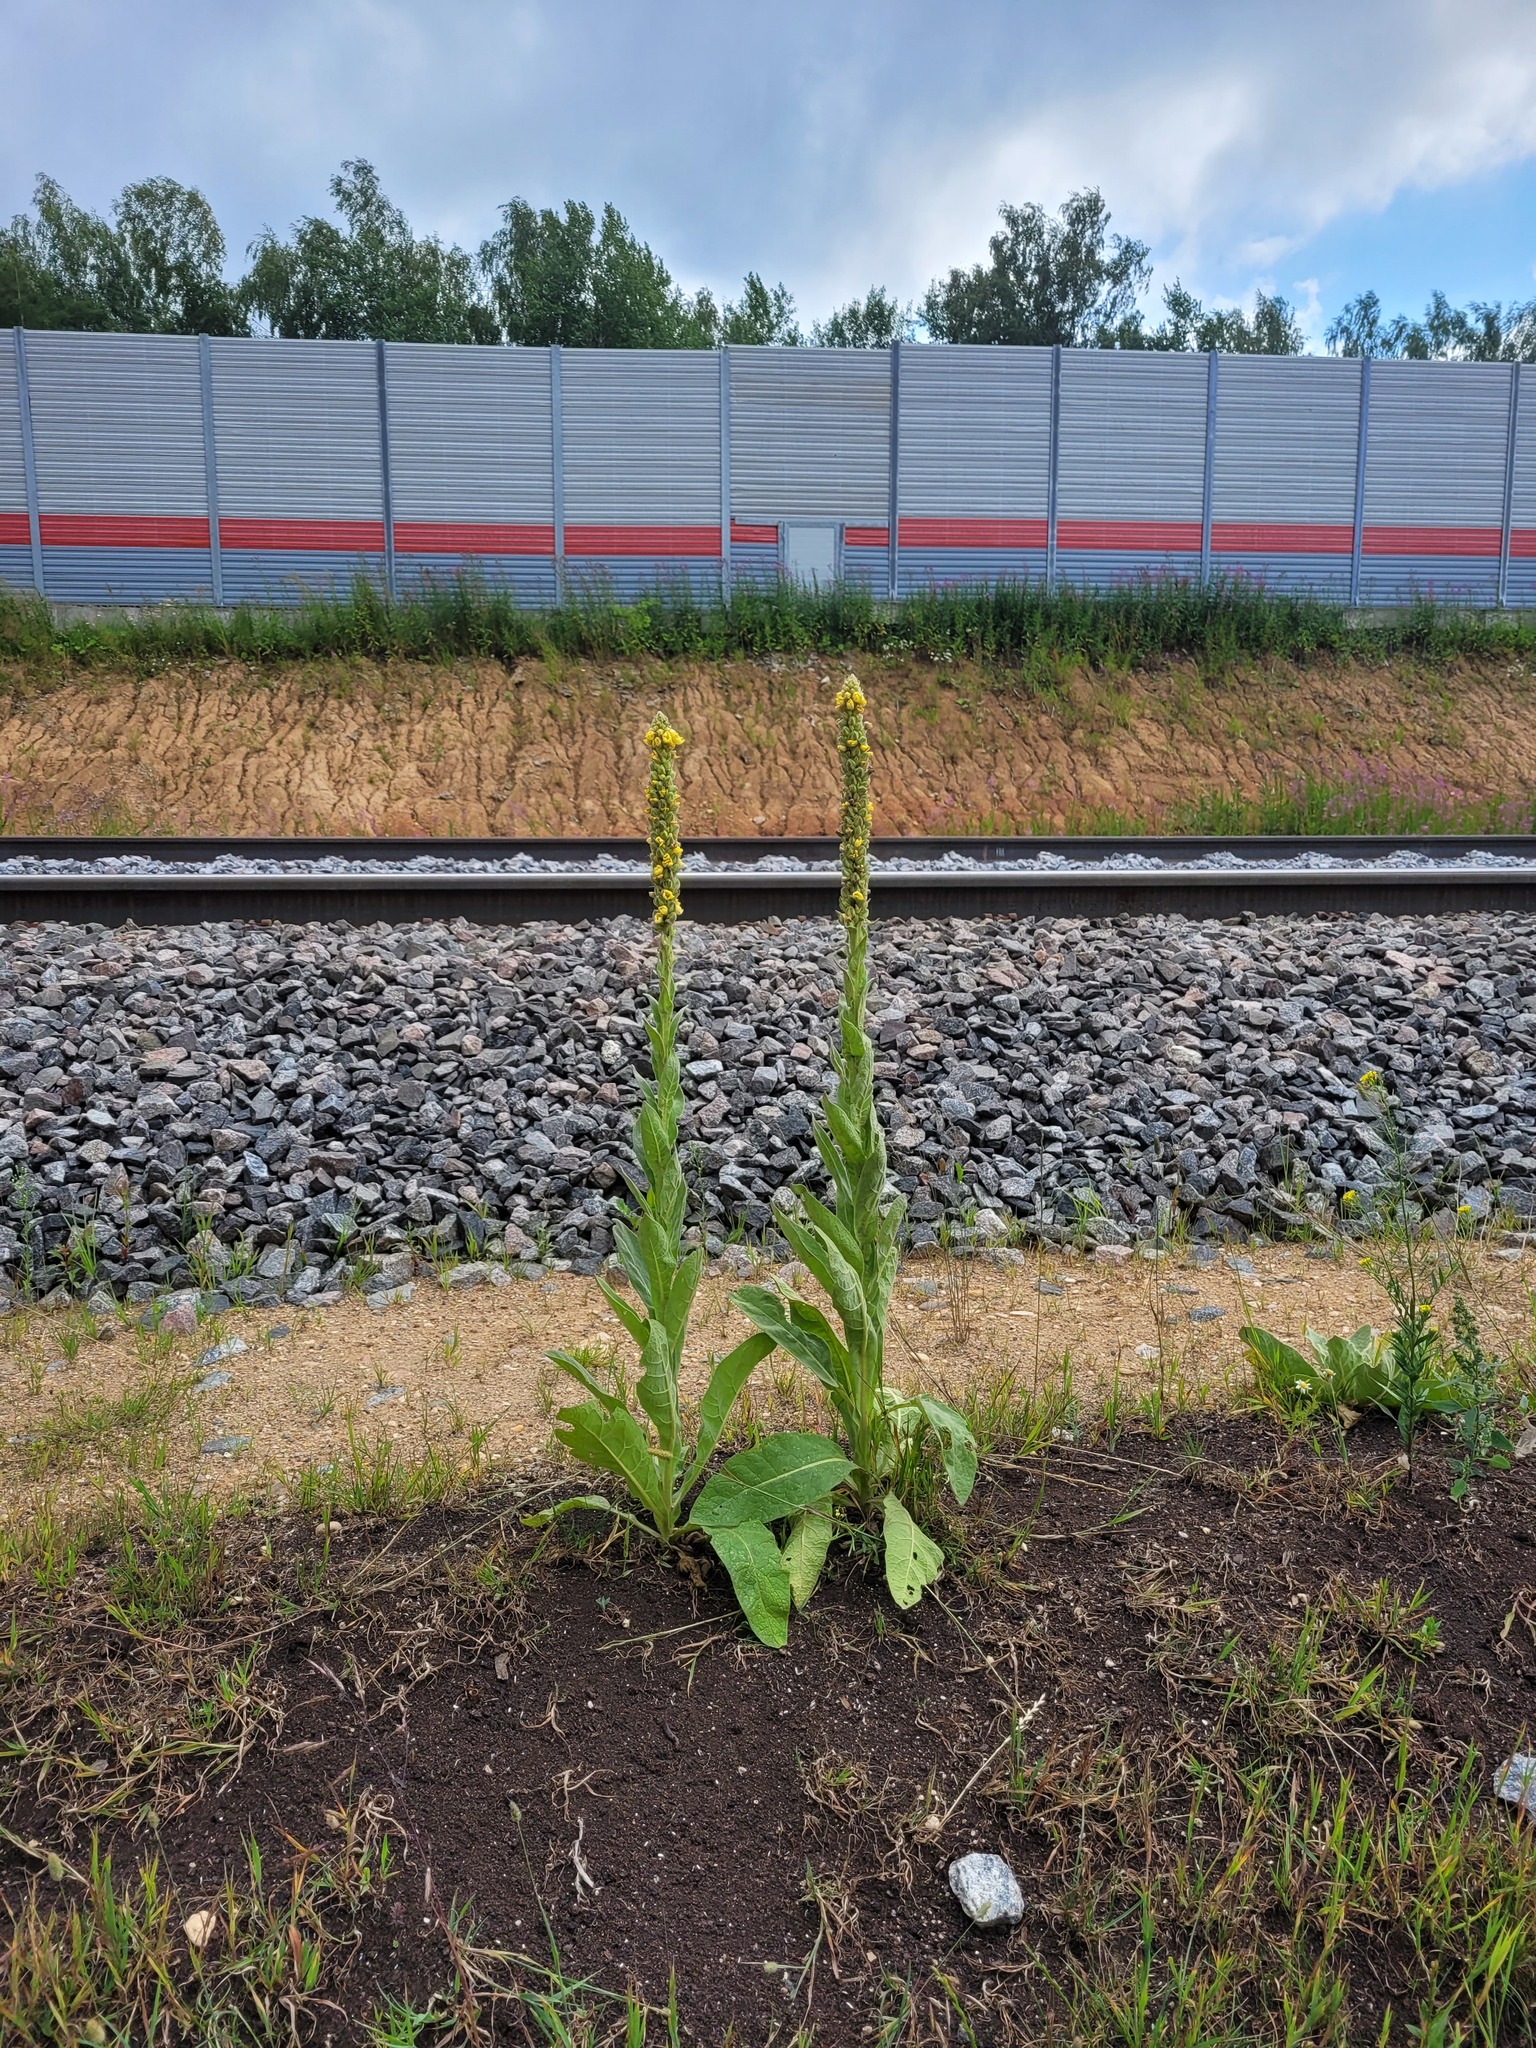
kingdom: Plantae
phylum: Tracheophyta
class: Magnoliopsida
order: Lamiales
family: Scrophulariaceae
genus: Verbascum
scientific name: Verbascum thapsus
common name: Common mullein
